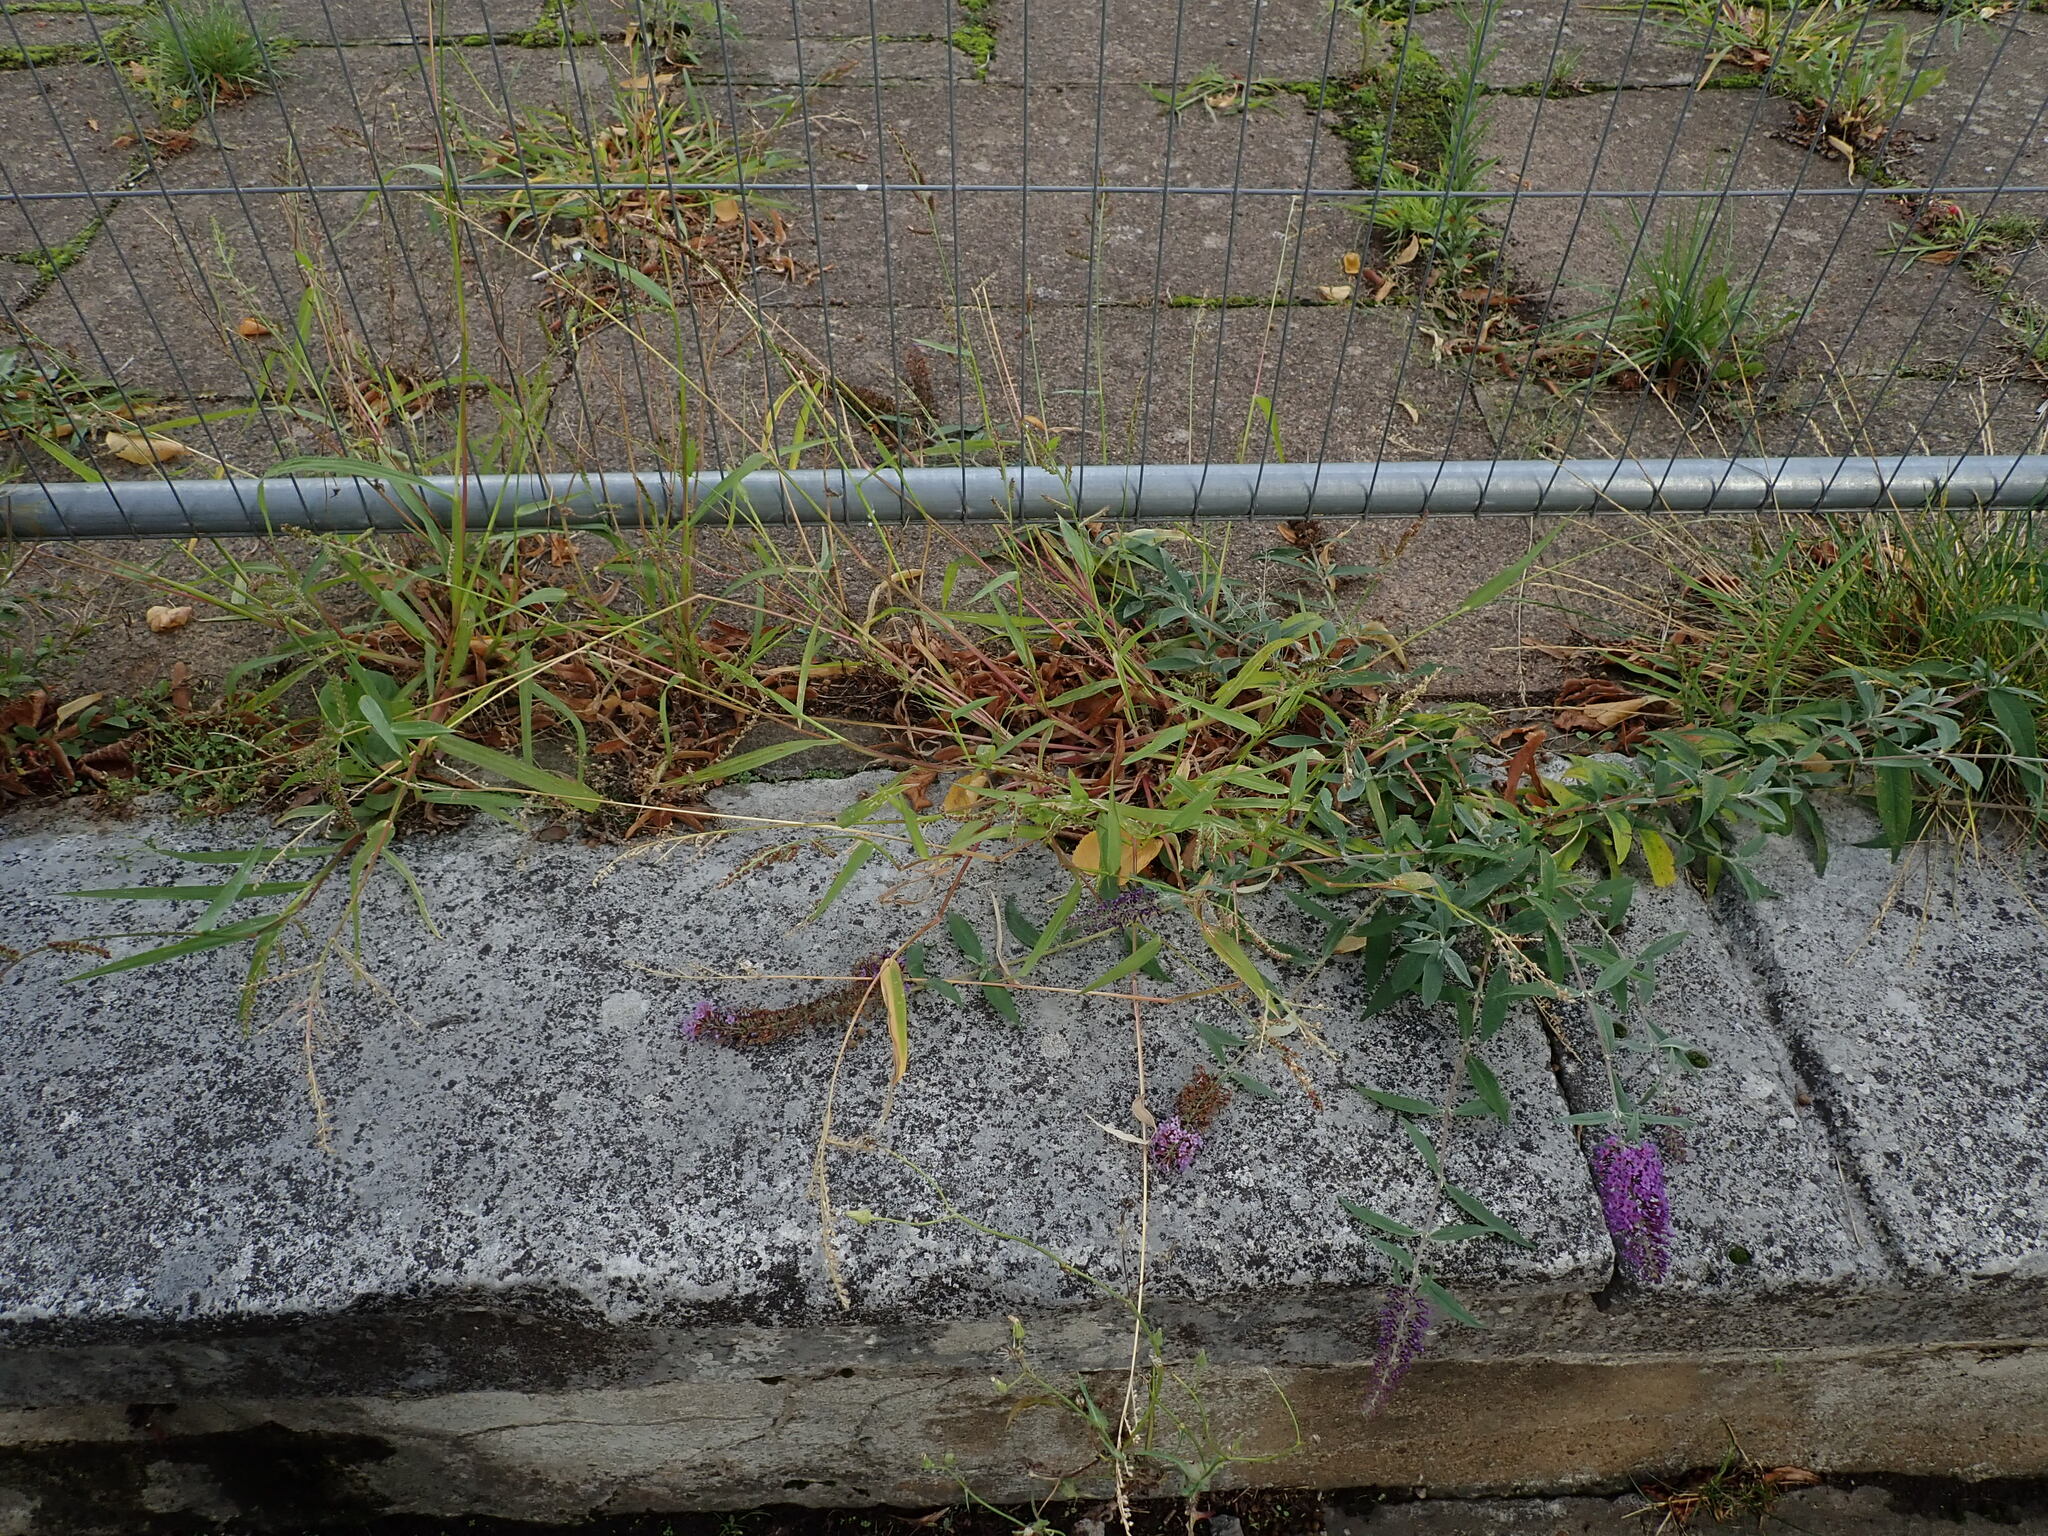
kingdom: Plantae
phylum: Tracheophyta
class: Liliopsida
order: Poales
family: Poaceae
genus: Echinochloa
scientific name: Echinochloa crus-galli
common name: Cockspur
